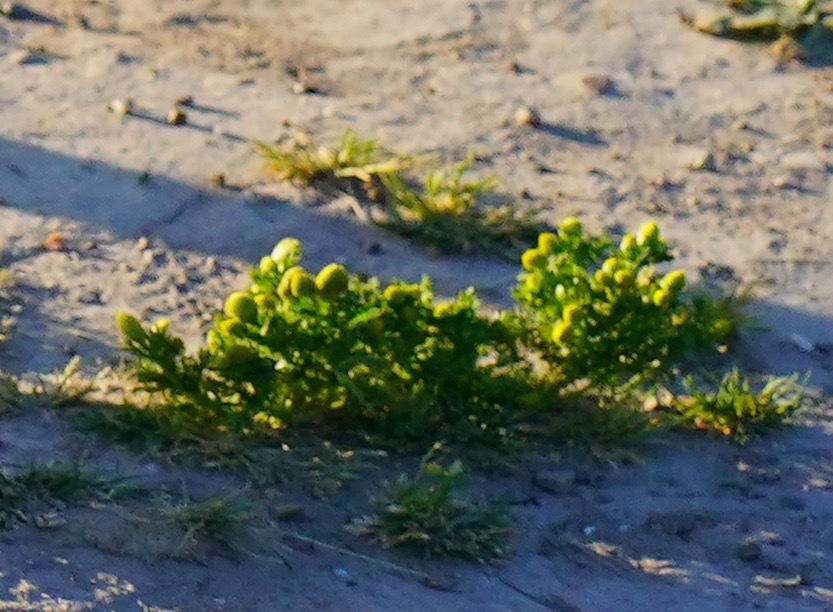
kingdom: Plantae
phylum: Tracheophyta
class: Magnoliopsida
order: Asterales
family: Asteraceae
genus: Matricaria
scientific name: Matricaria discoidea
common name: Disc mayweed
